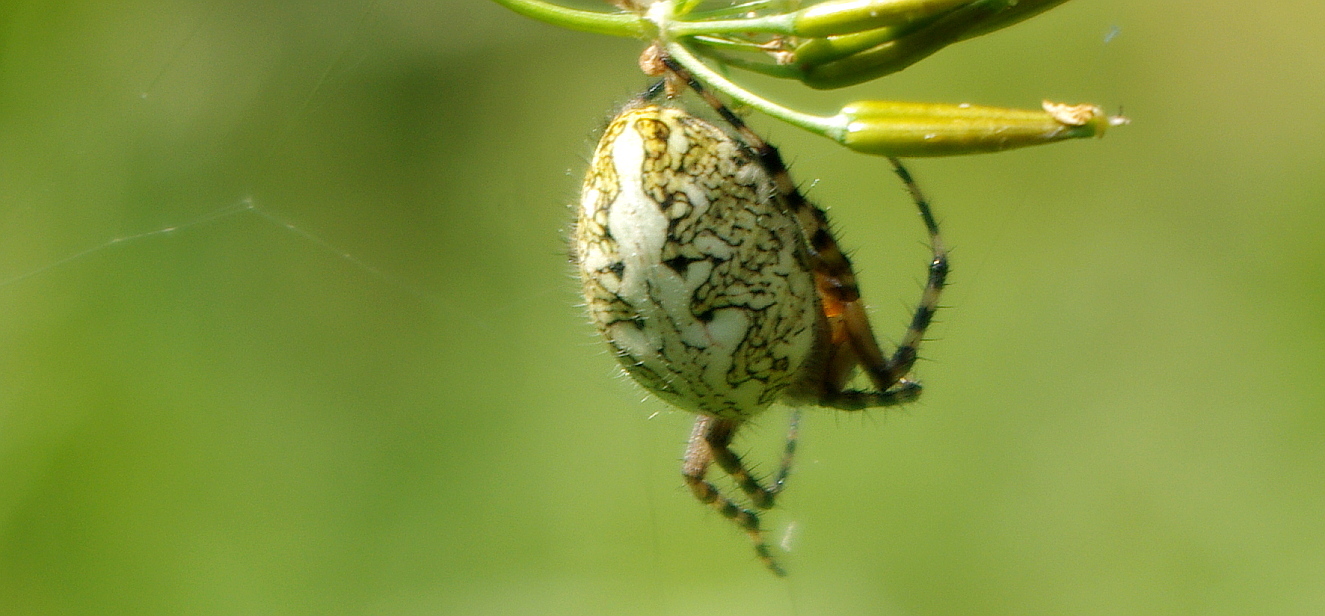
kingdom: Animalia
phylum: Arthropoda
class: Arachnida
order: Araneae
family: Araneidae
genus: Aculepeira
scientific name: Aculepeira ceropegia
